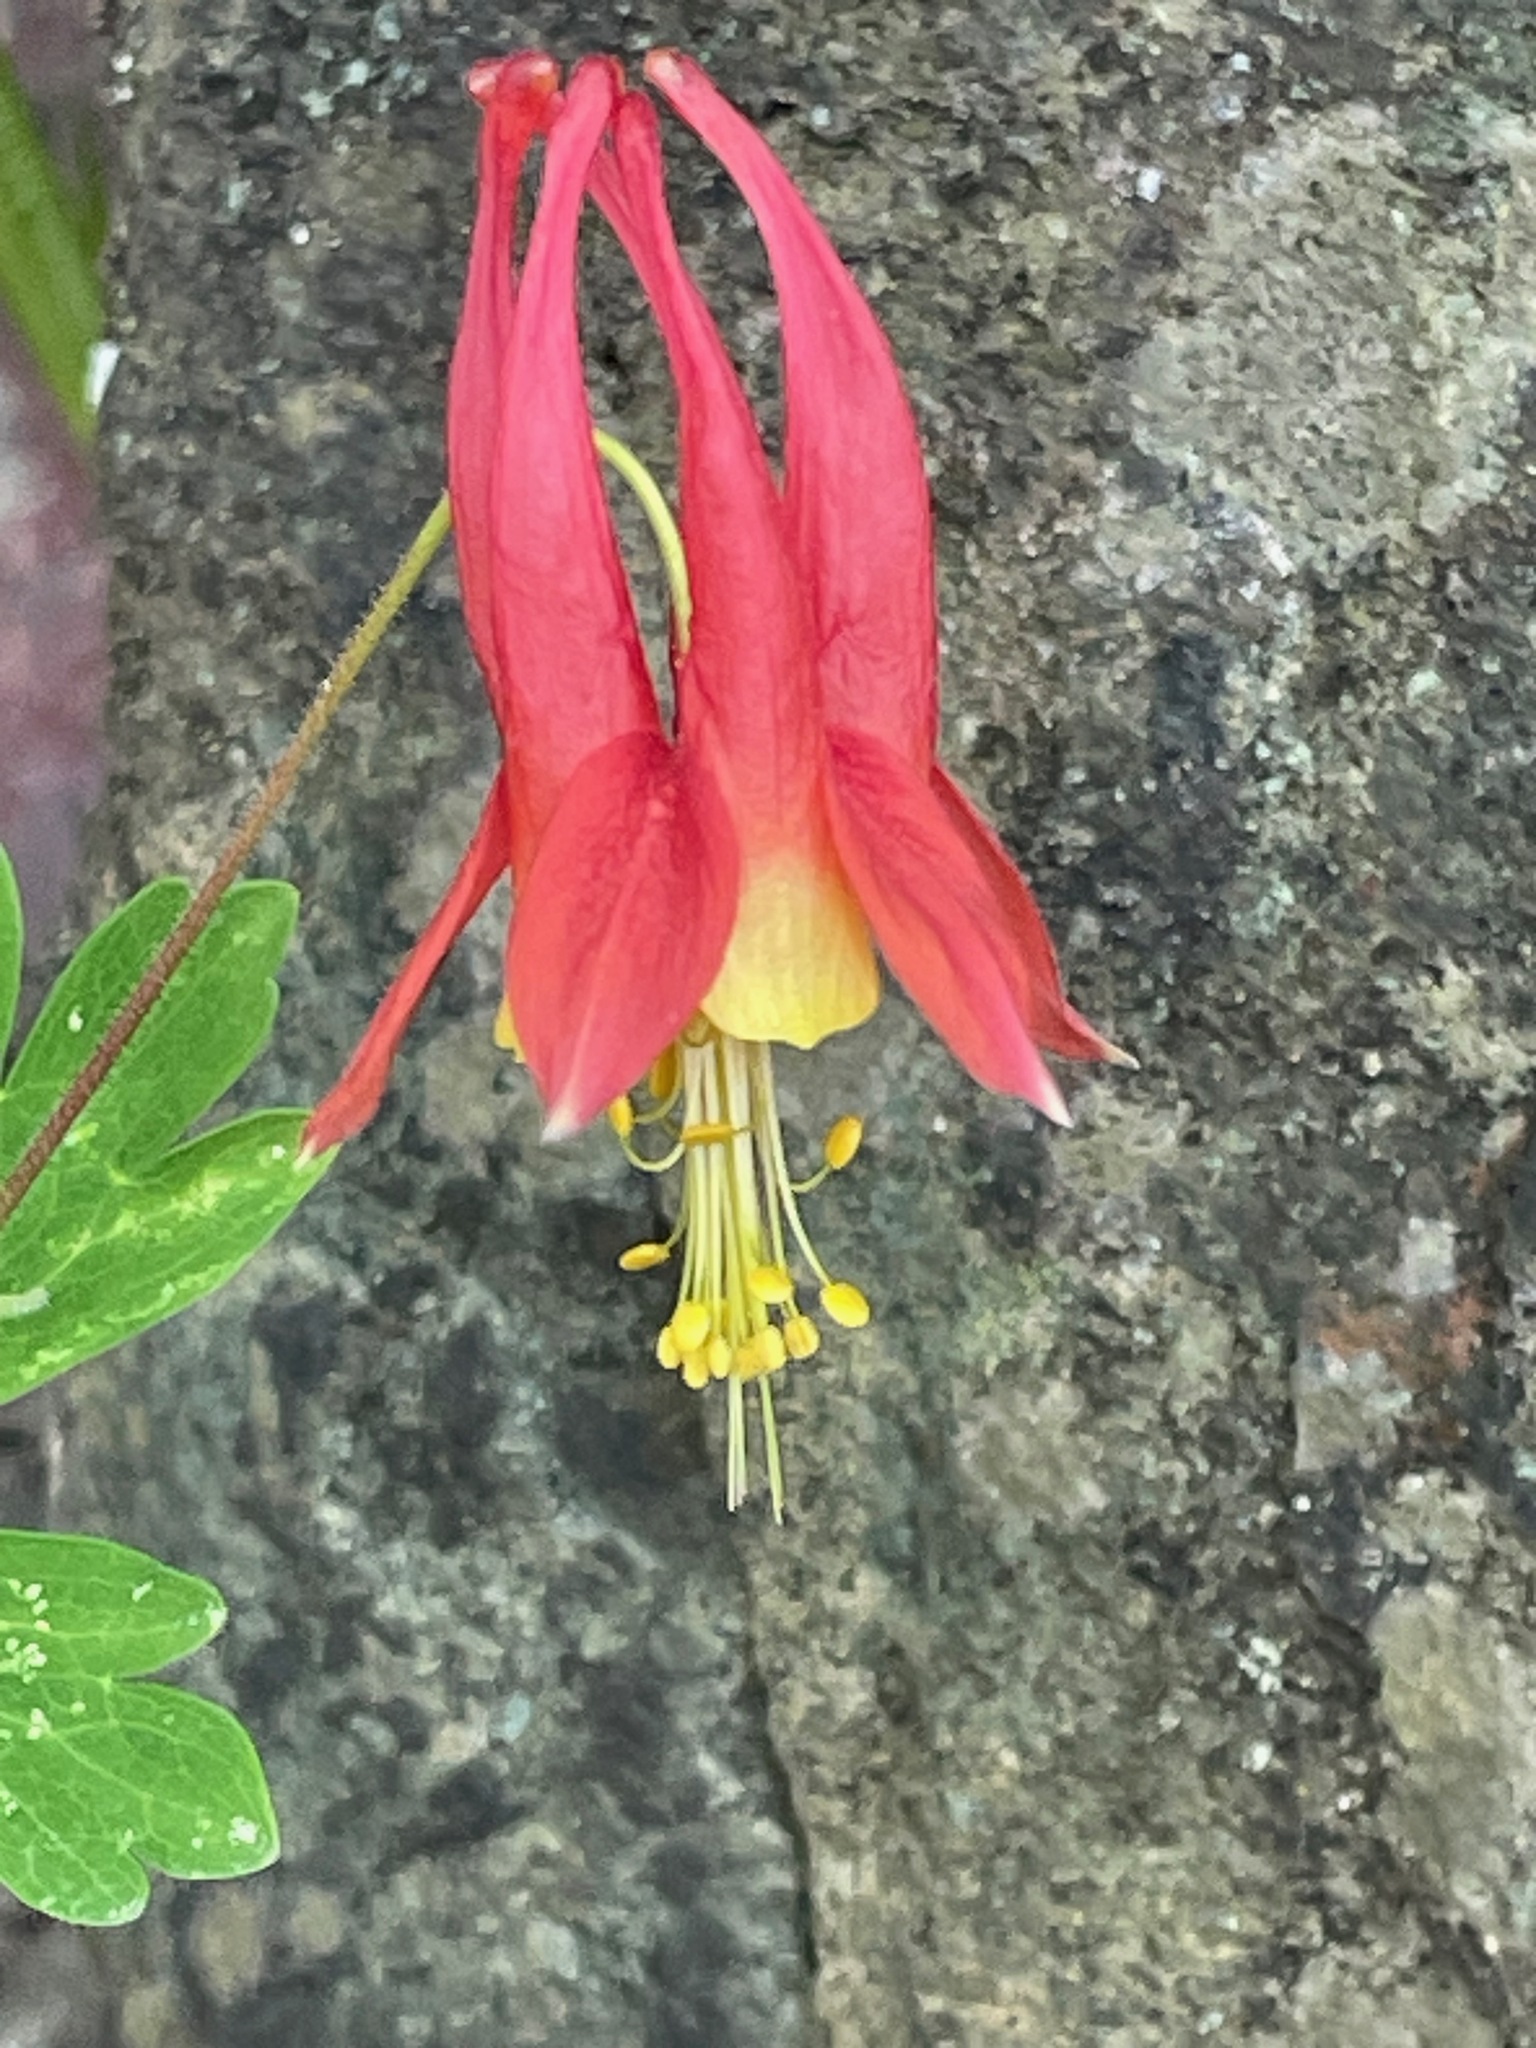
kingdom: Plantae
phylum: Tracheophyta
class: Magnoliopsida
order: Ranunculales
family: Ranunculaceae
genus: Aquilegia
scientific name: Aquilegia canadensis
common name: American columbine
